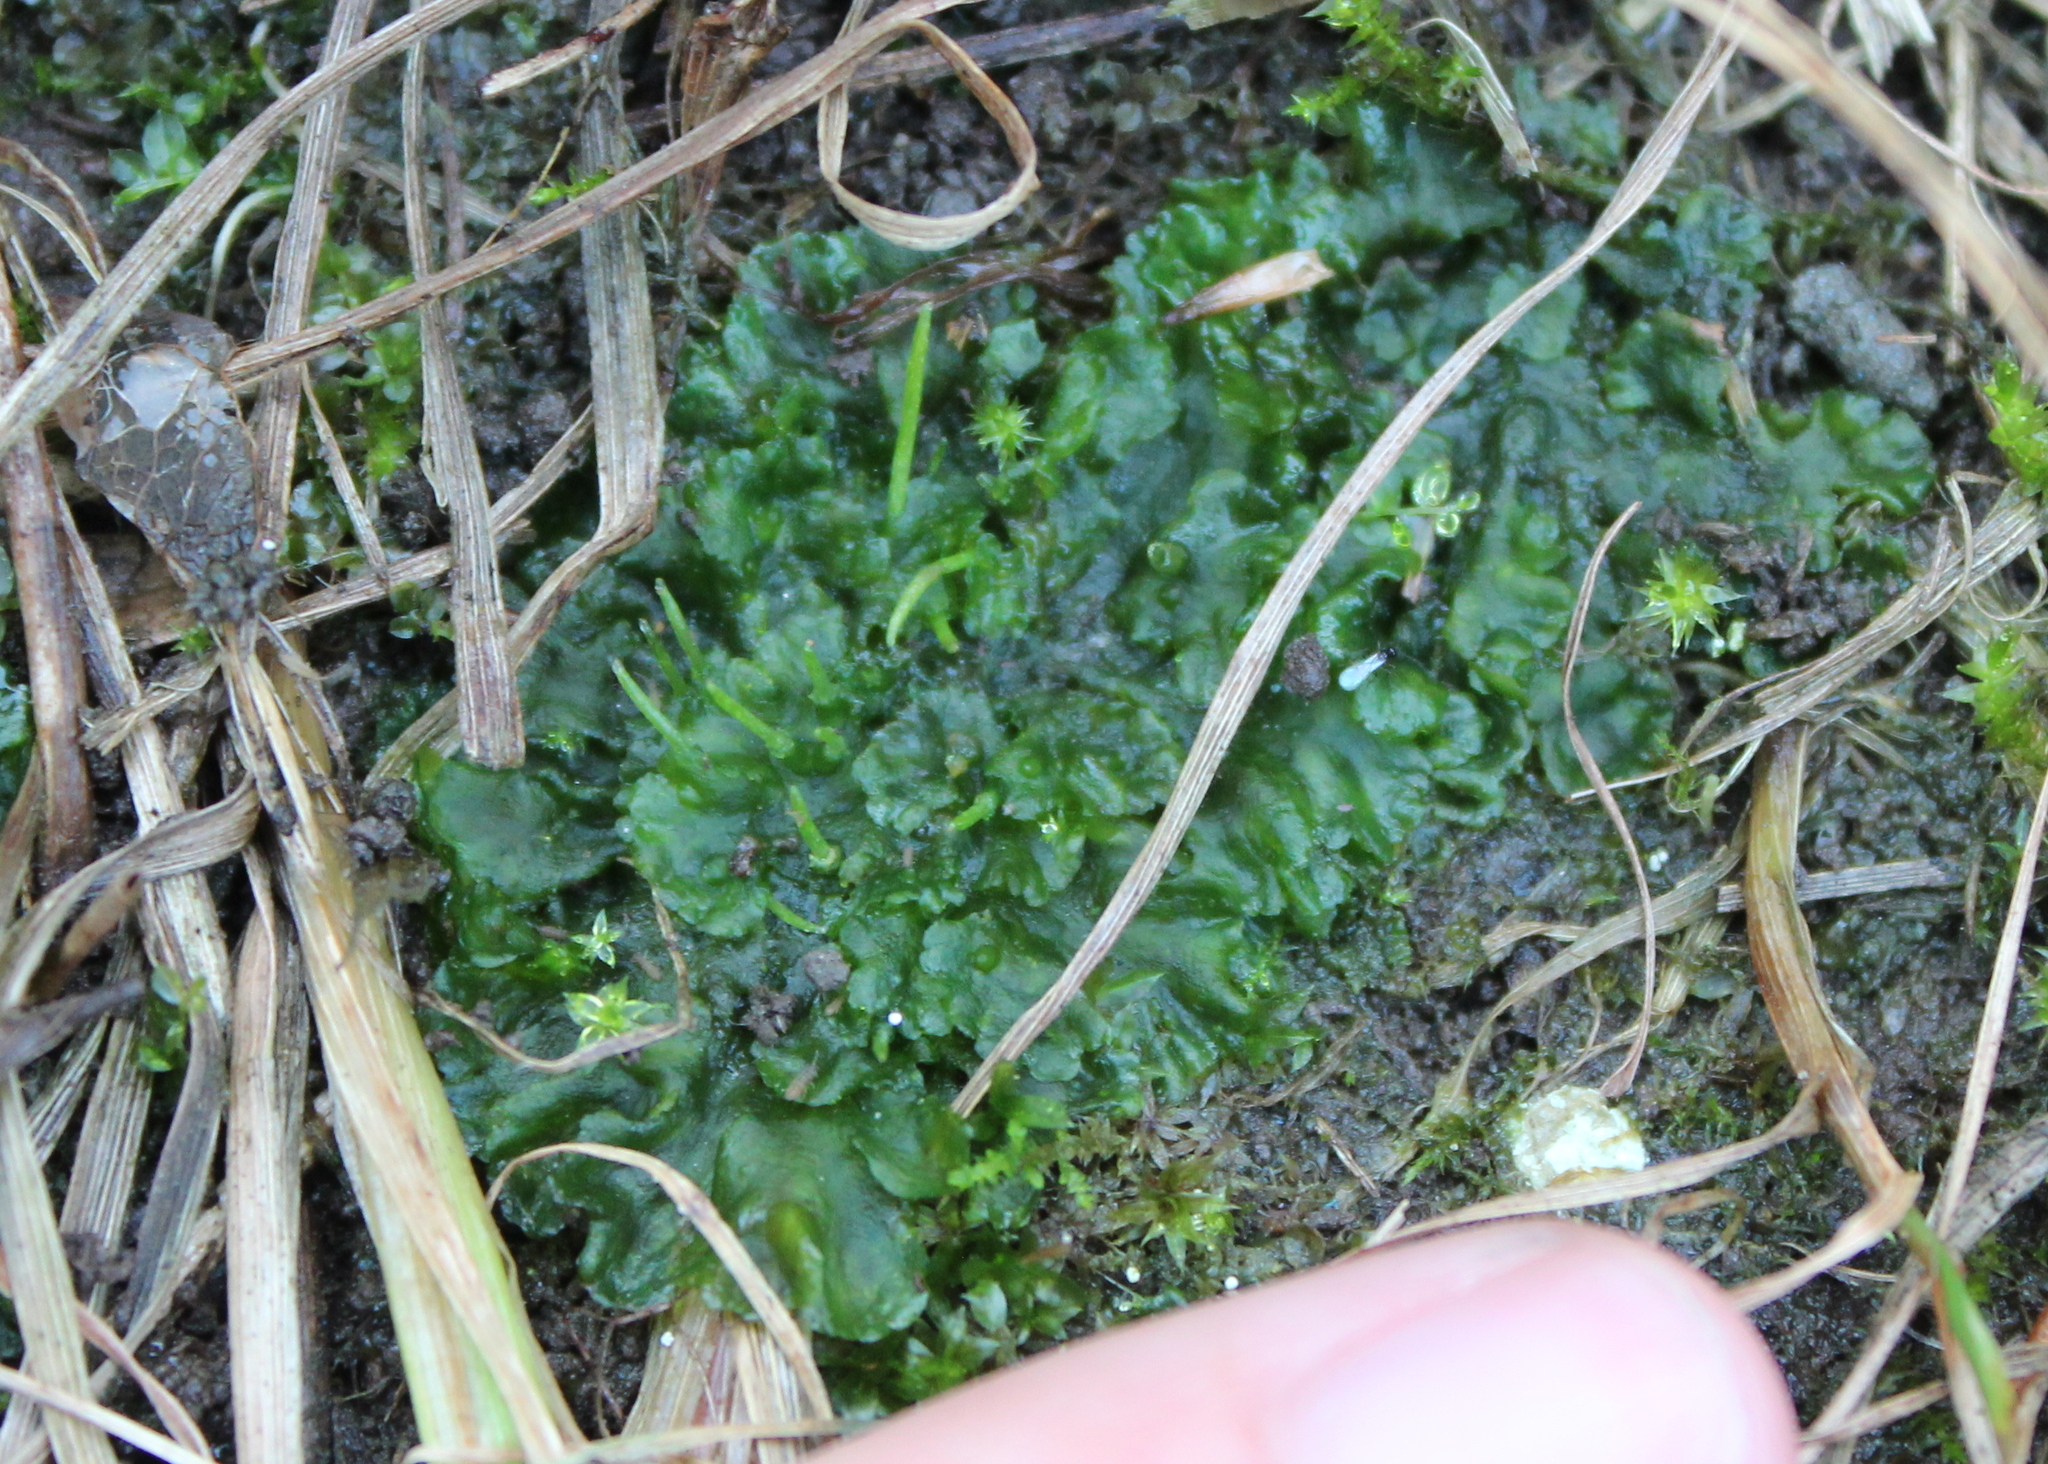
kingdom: Plantae
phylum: Anthocerotophyta
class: Anthocerotopsida
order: Notothyladales
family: Notothyladaceae
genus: Phaeoceros
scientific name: Phaeoceros laevis
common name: Smooth hornwort
